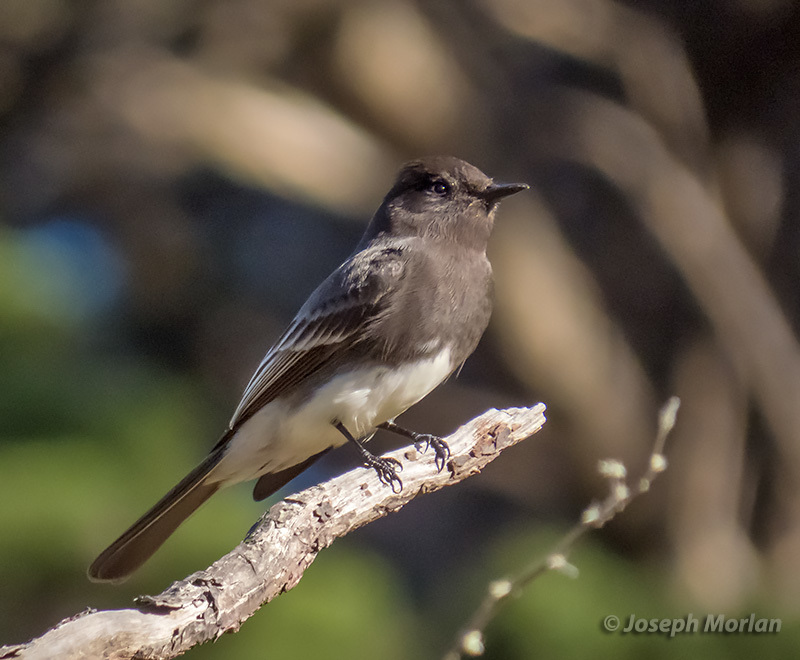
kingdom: Animalia
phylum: Chordata
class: Aves
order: Passeriformes
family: Tyrannidae
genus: Sayornis
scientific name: Sayornis nigricans
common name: Black phoebe
